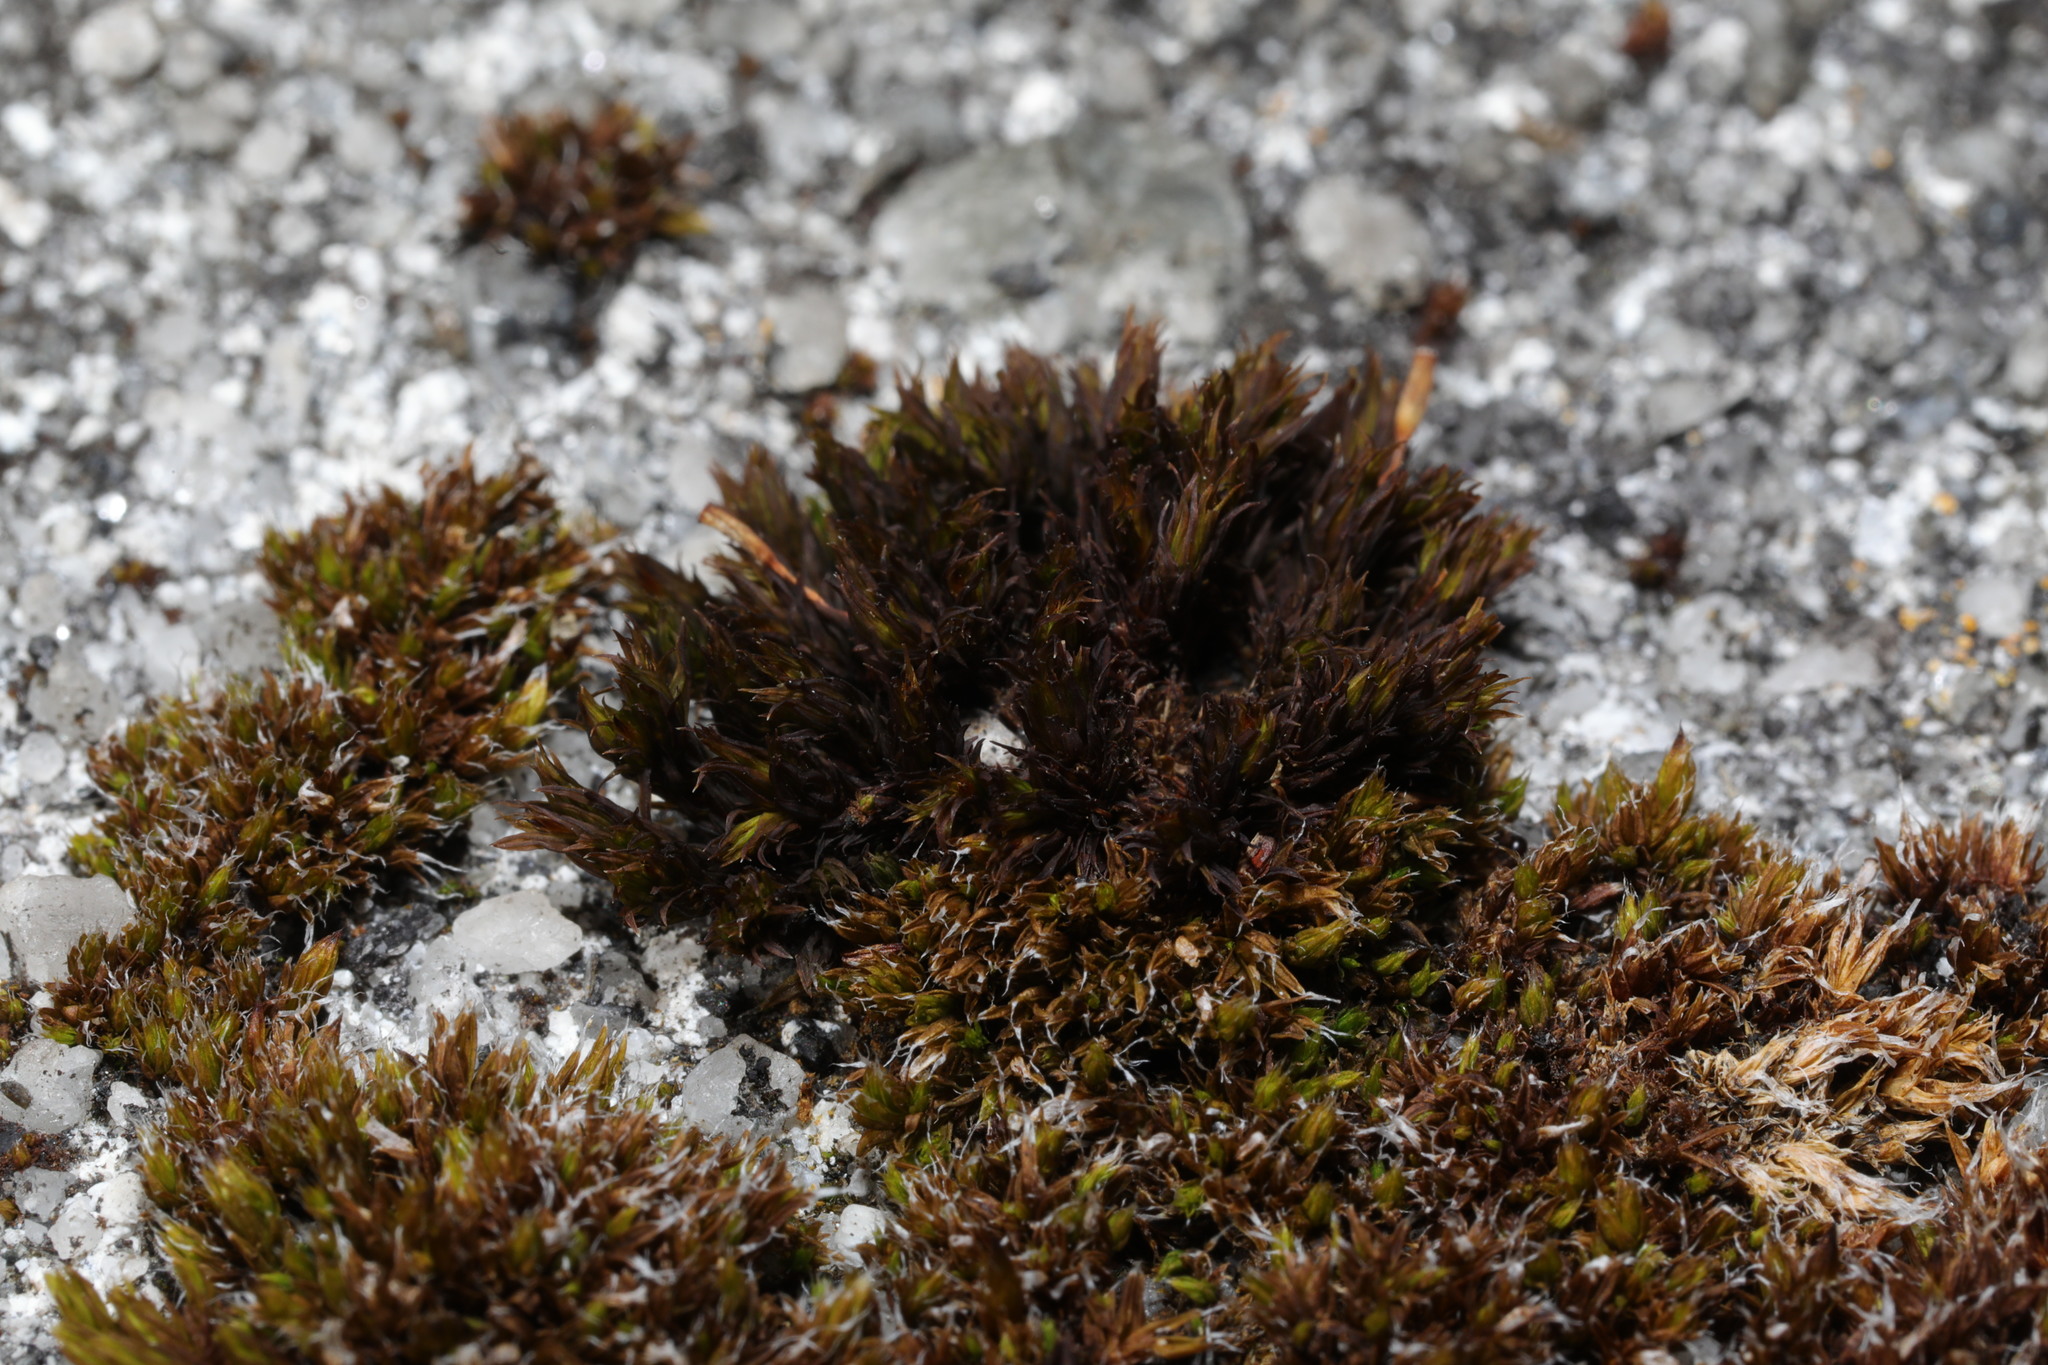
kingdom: Plantae
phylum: Bryophyta
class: Bryopsida
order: Orthotrichales
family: Orthotrichaceae
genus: Orthotrichum
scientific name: Orthotrichum anomalum
